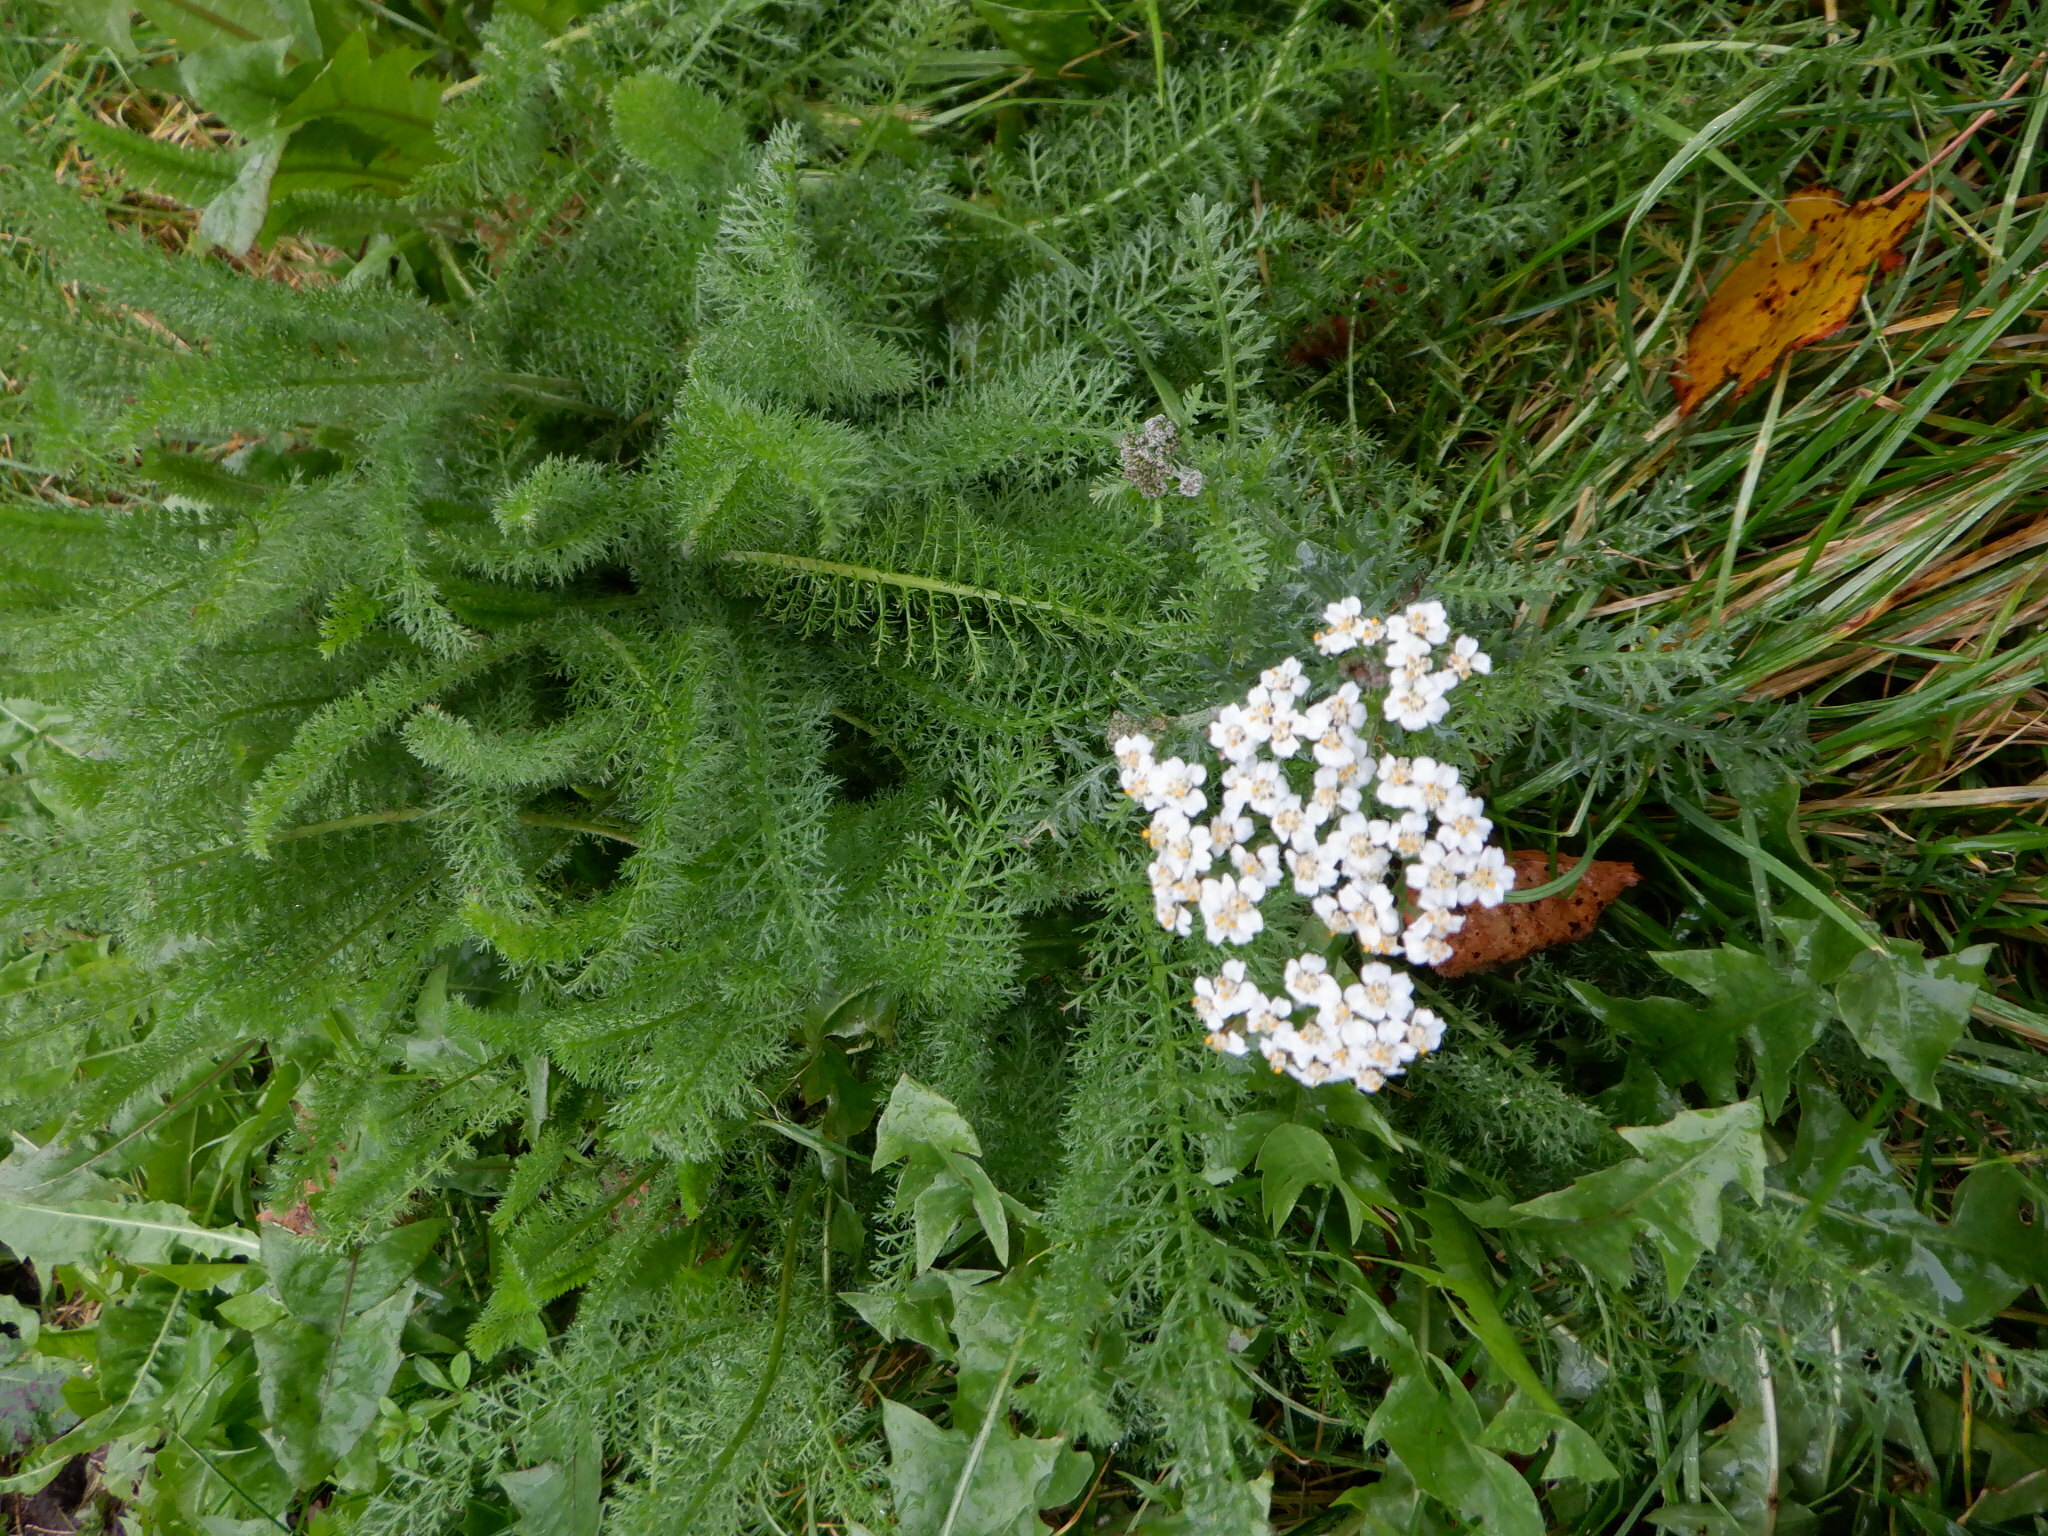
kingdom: Plantae
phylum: Tracheophyta
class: Magnoliopsida
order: Asterales
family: Asteraceae
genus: Achillea
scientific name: Achillea millefolium
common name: Yarrow
